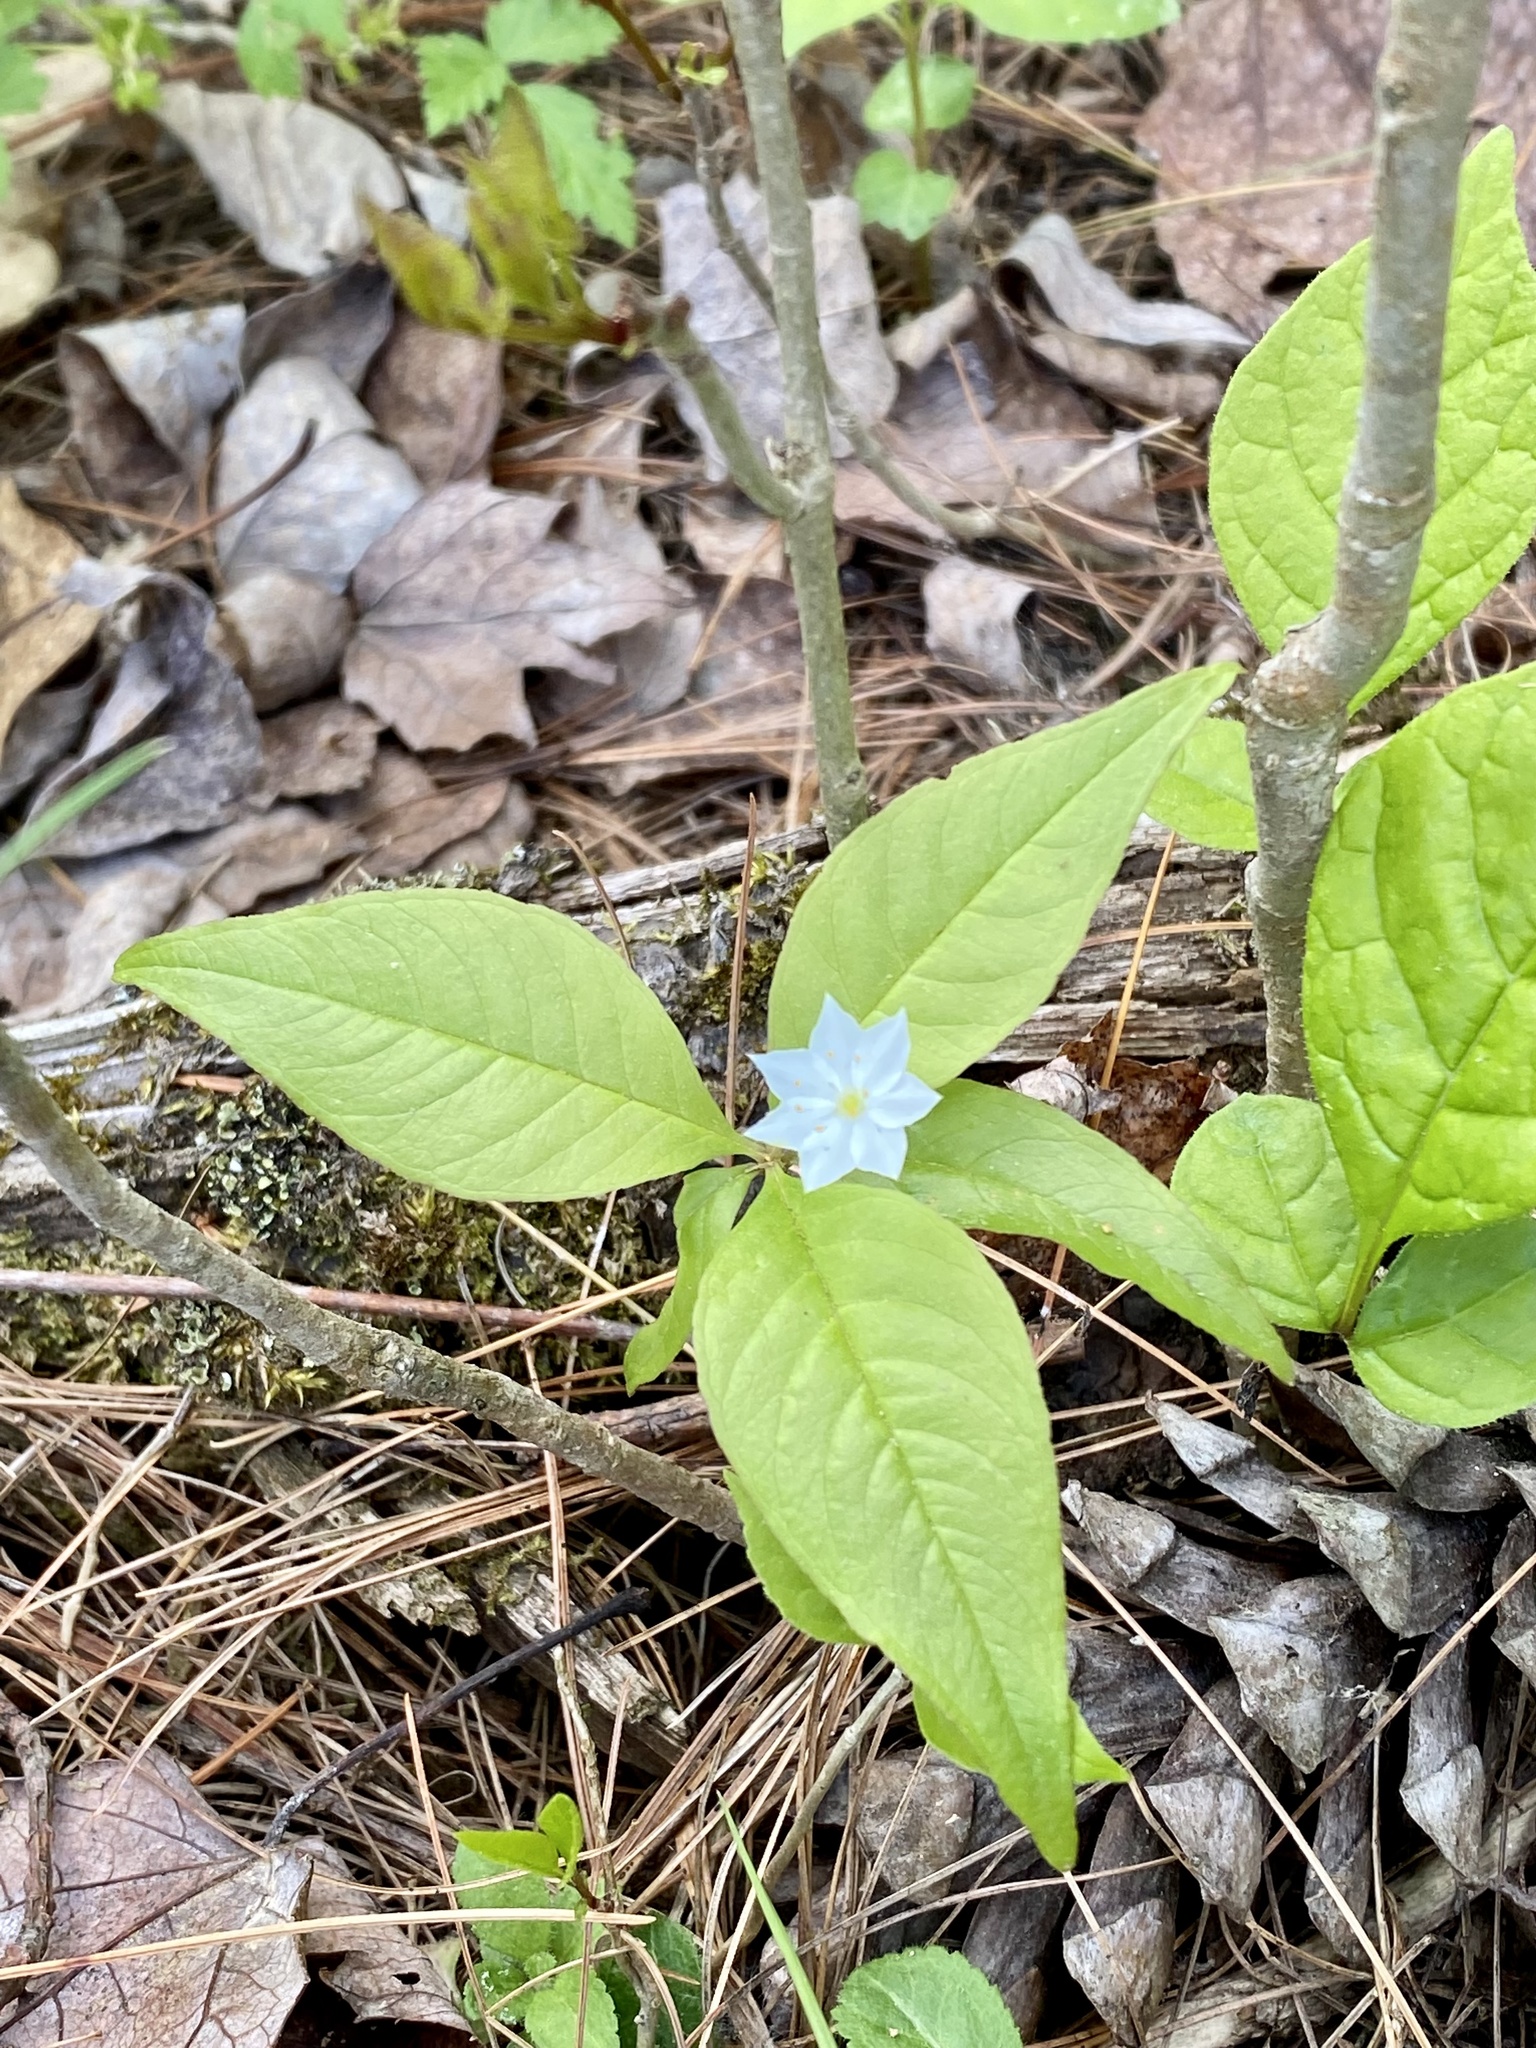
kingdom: Plantae
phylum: Tracheophyta
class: Magnoliopsida
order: Ericales
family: Primulaceae
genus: Lysimachia
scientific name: Lysimachia borealis
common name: American starflower
